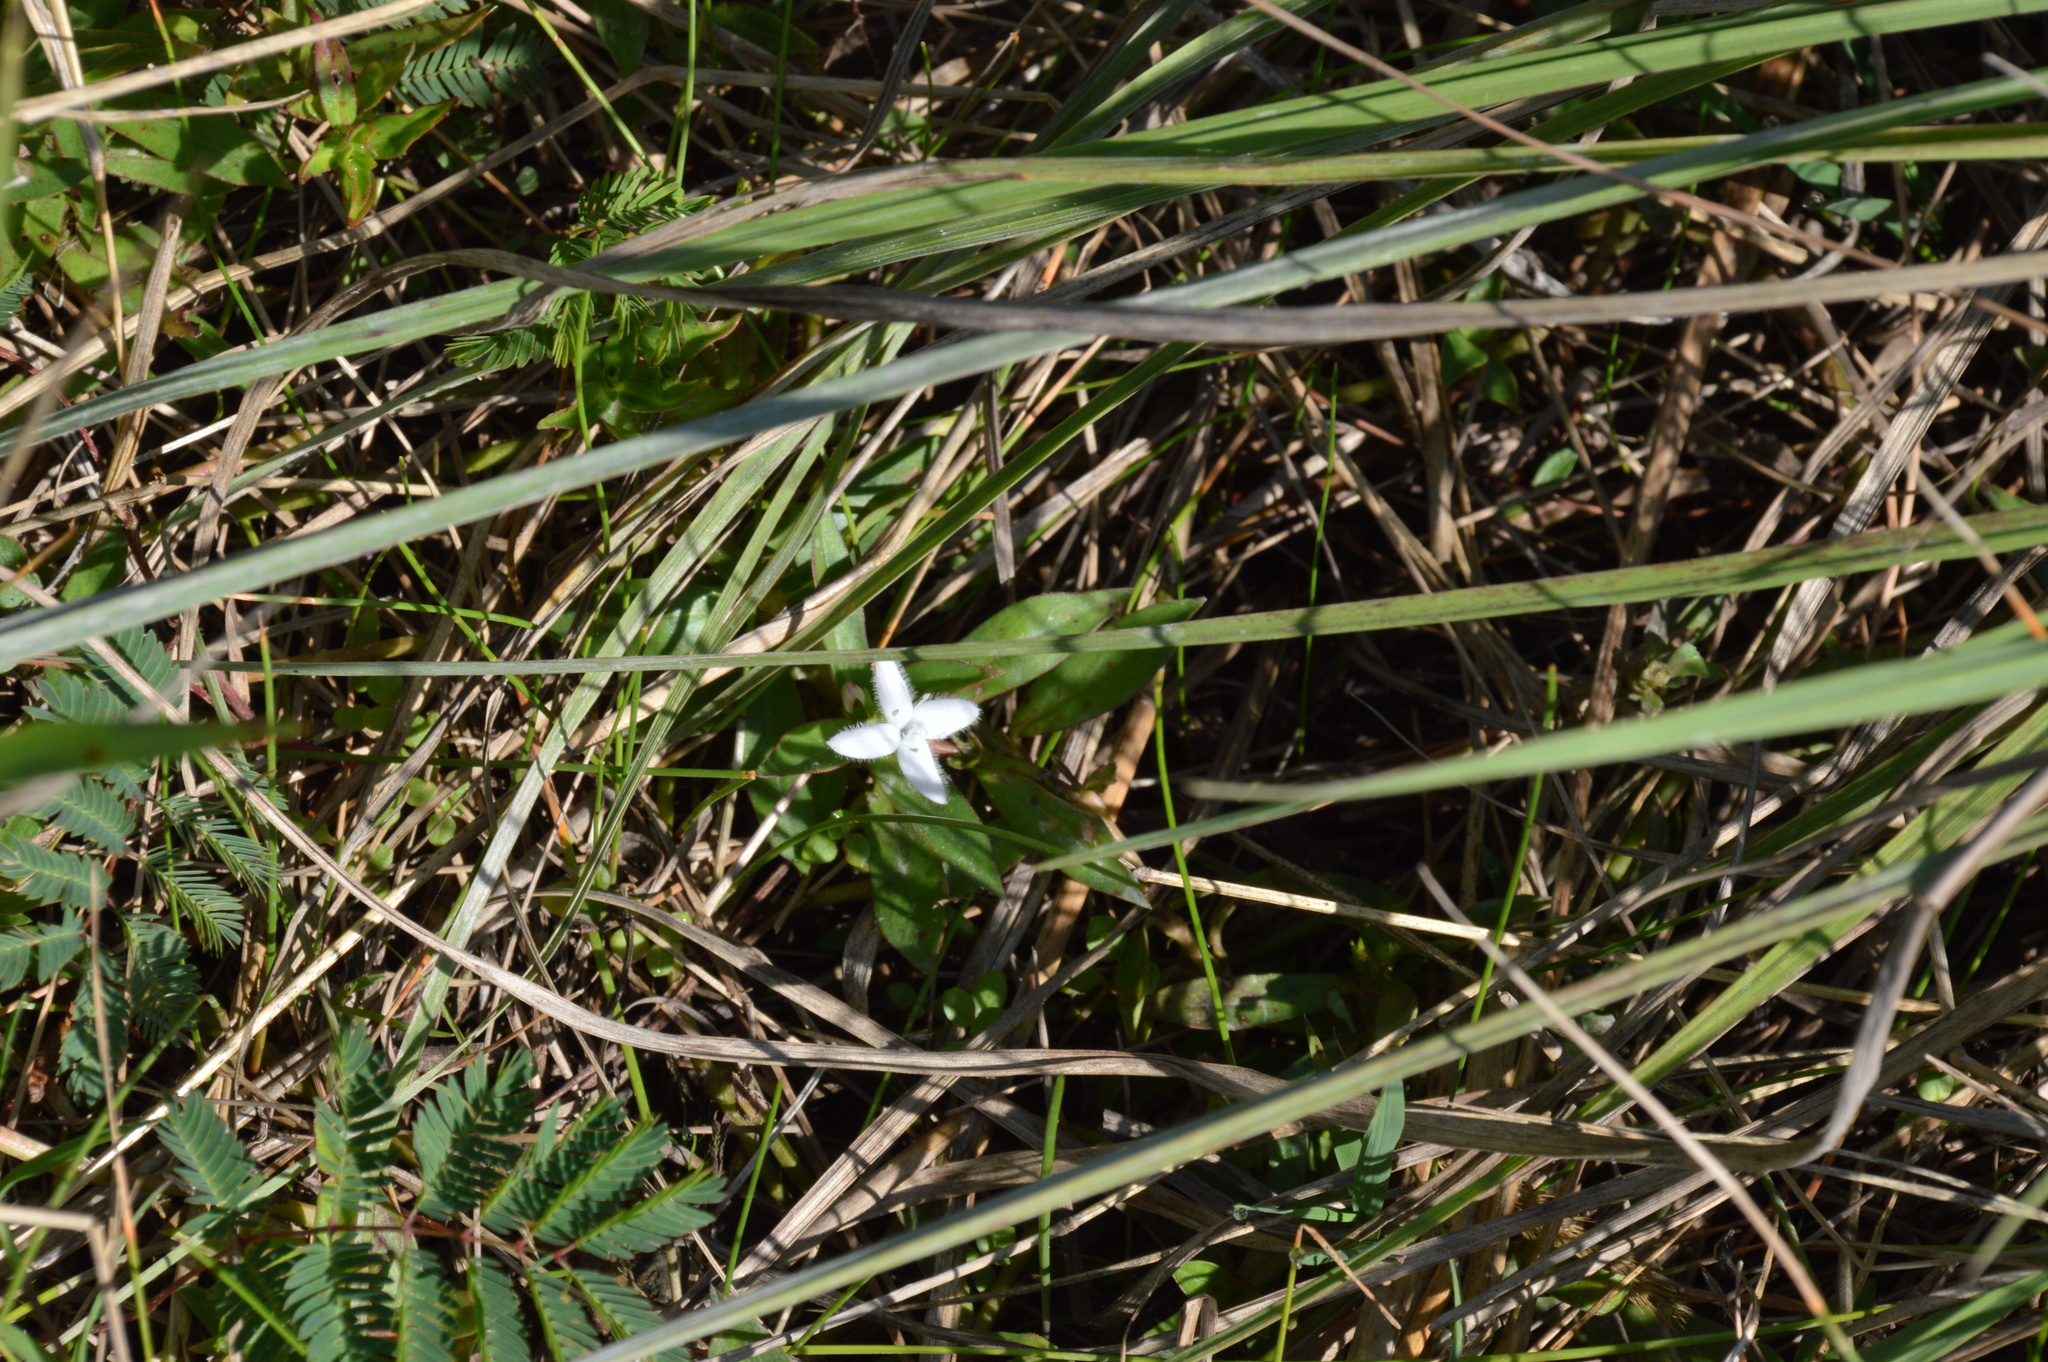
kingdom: Plantae
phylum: Tracheophyta
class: Magnoliopsida
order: Gentianales
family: Rubiaceae
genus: Diodia
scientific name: Diodia virginiana
